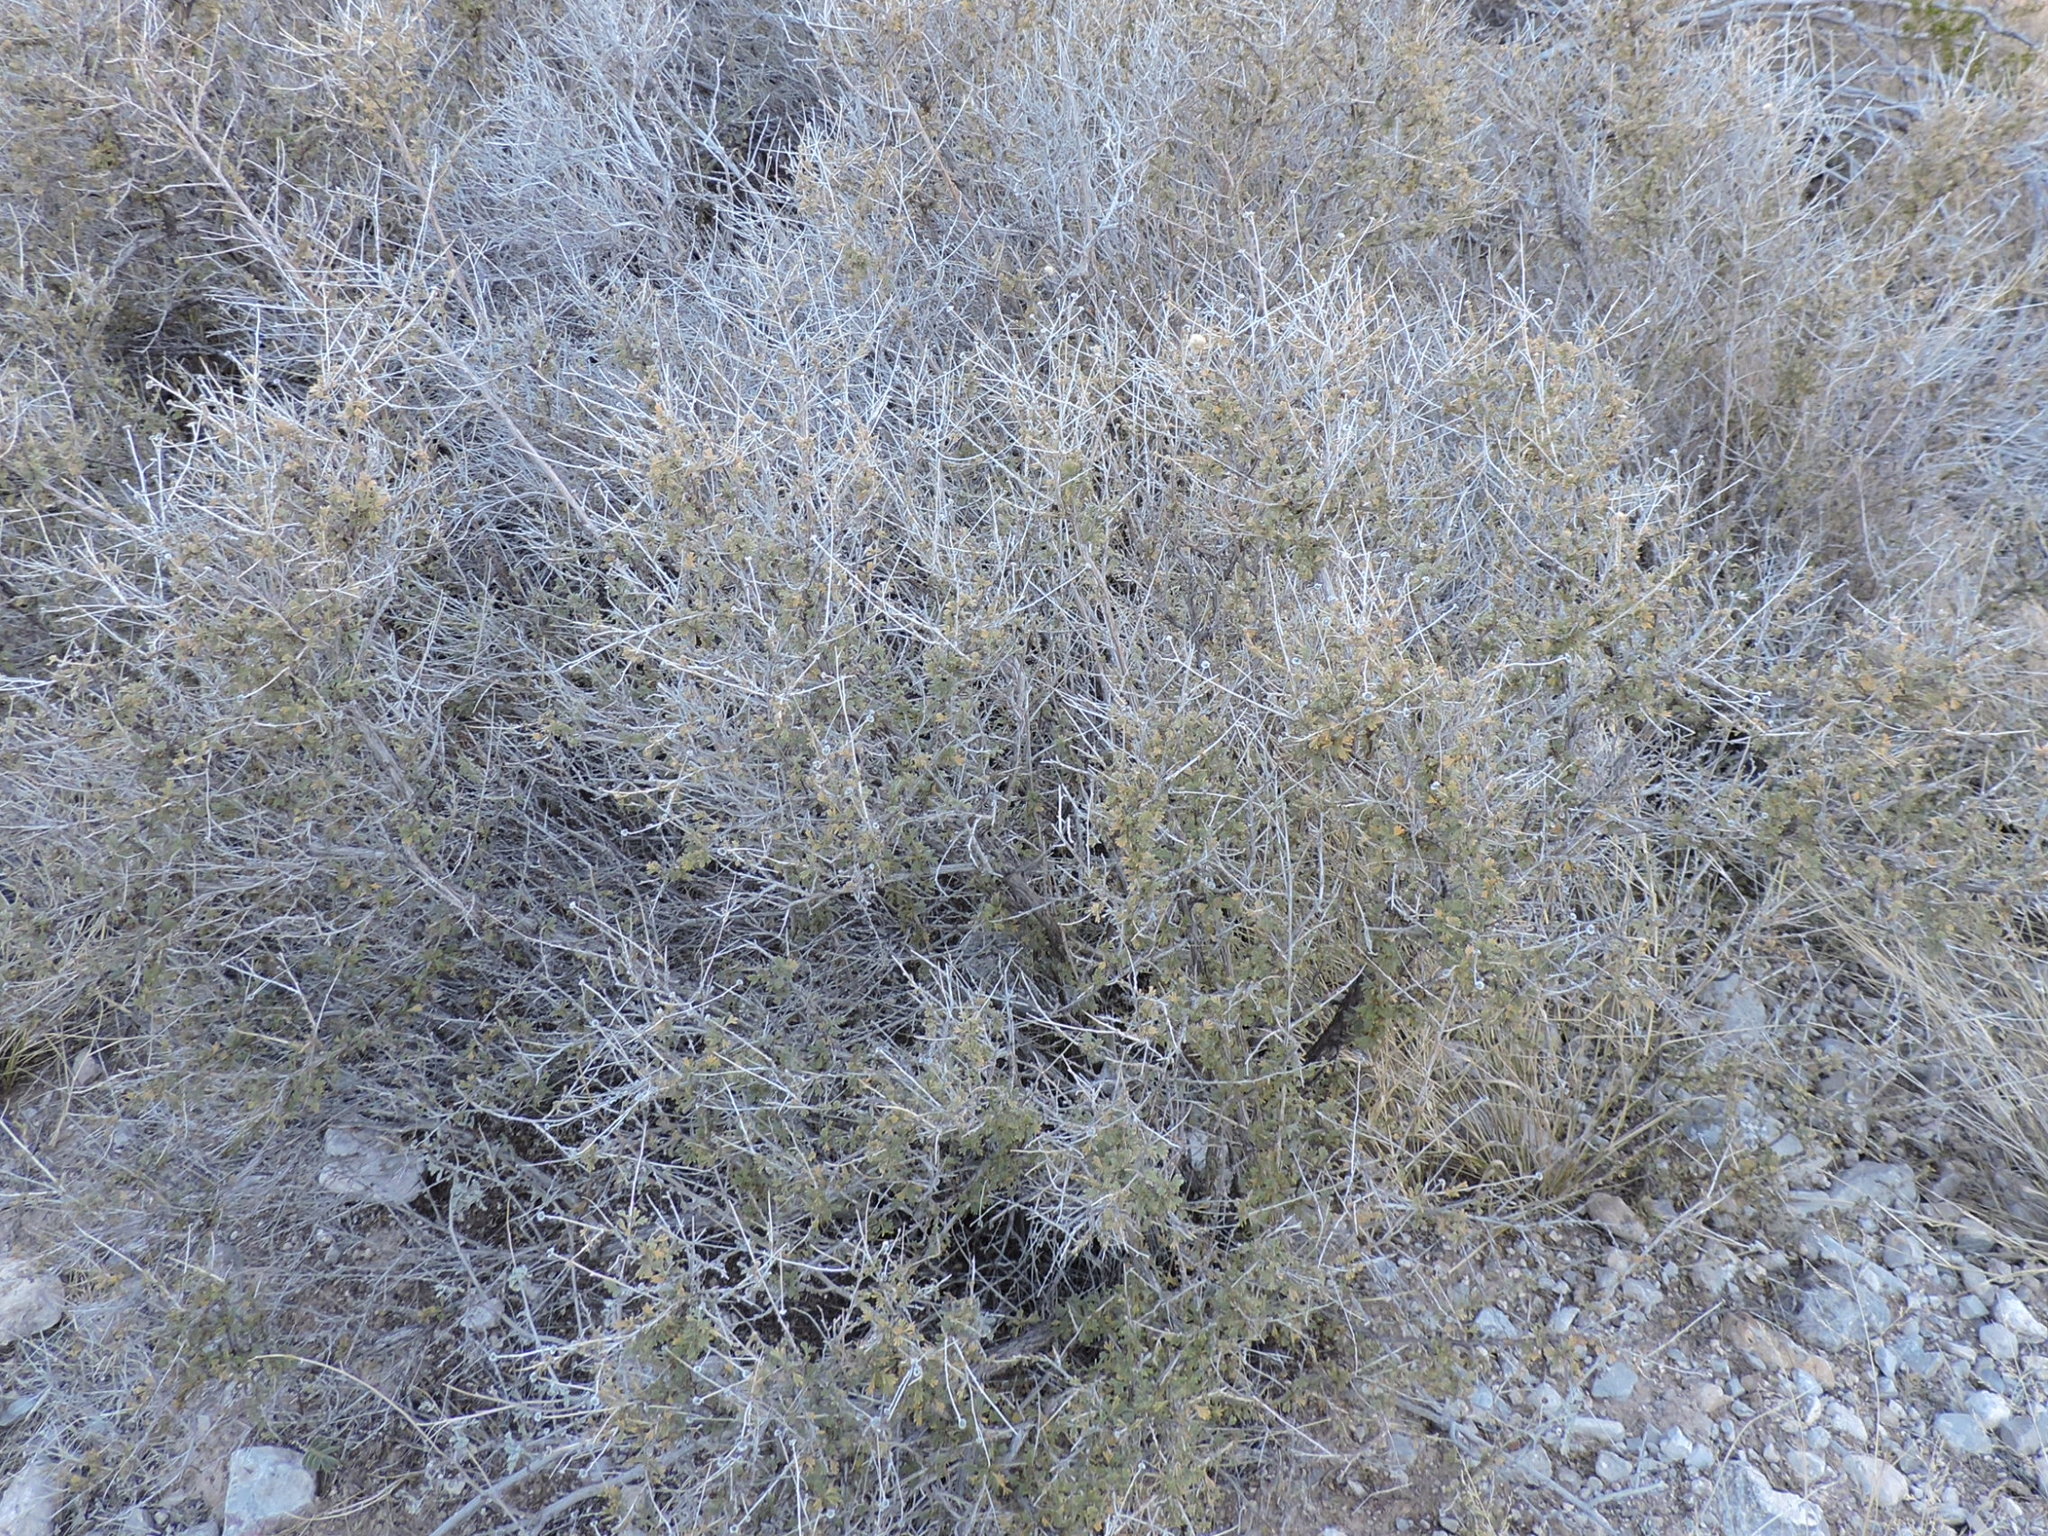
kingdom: Plantae
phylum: Tracheophyta
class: Magnoliopsida
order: Rosales
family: Rosaceae
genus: Fallugia
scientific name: Fallugia paradoxa
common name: Apache-plume
